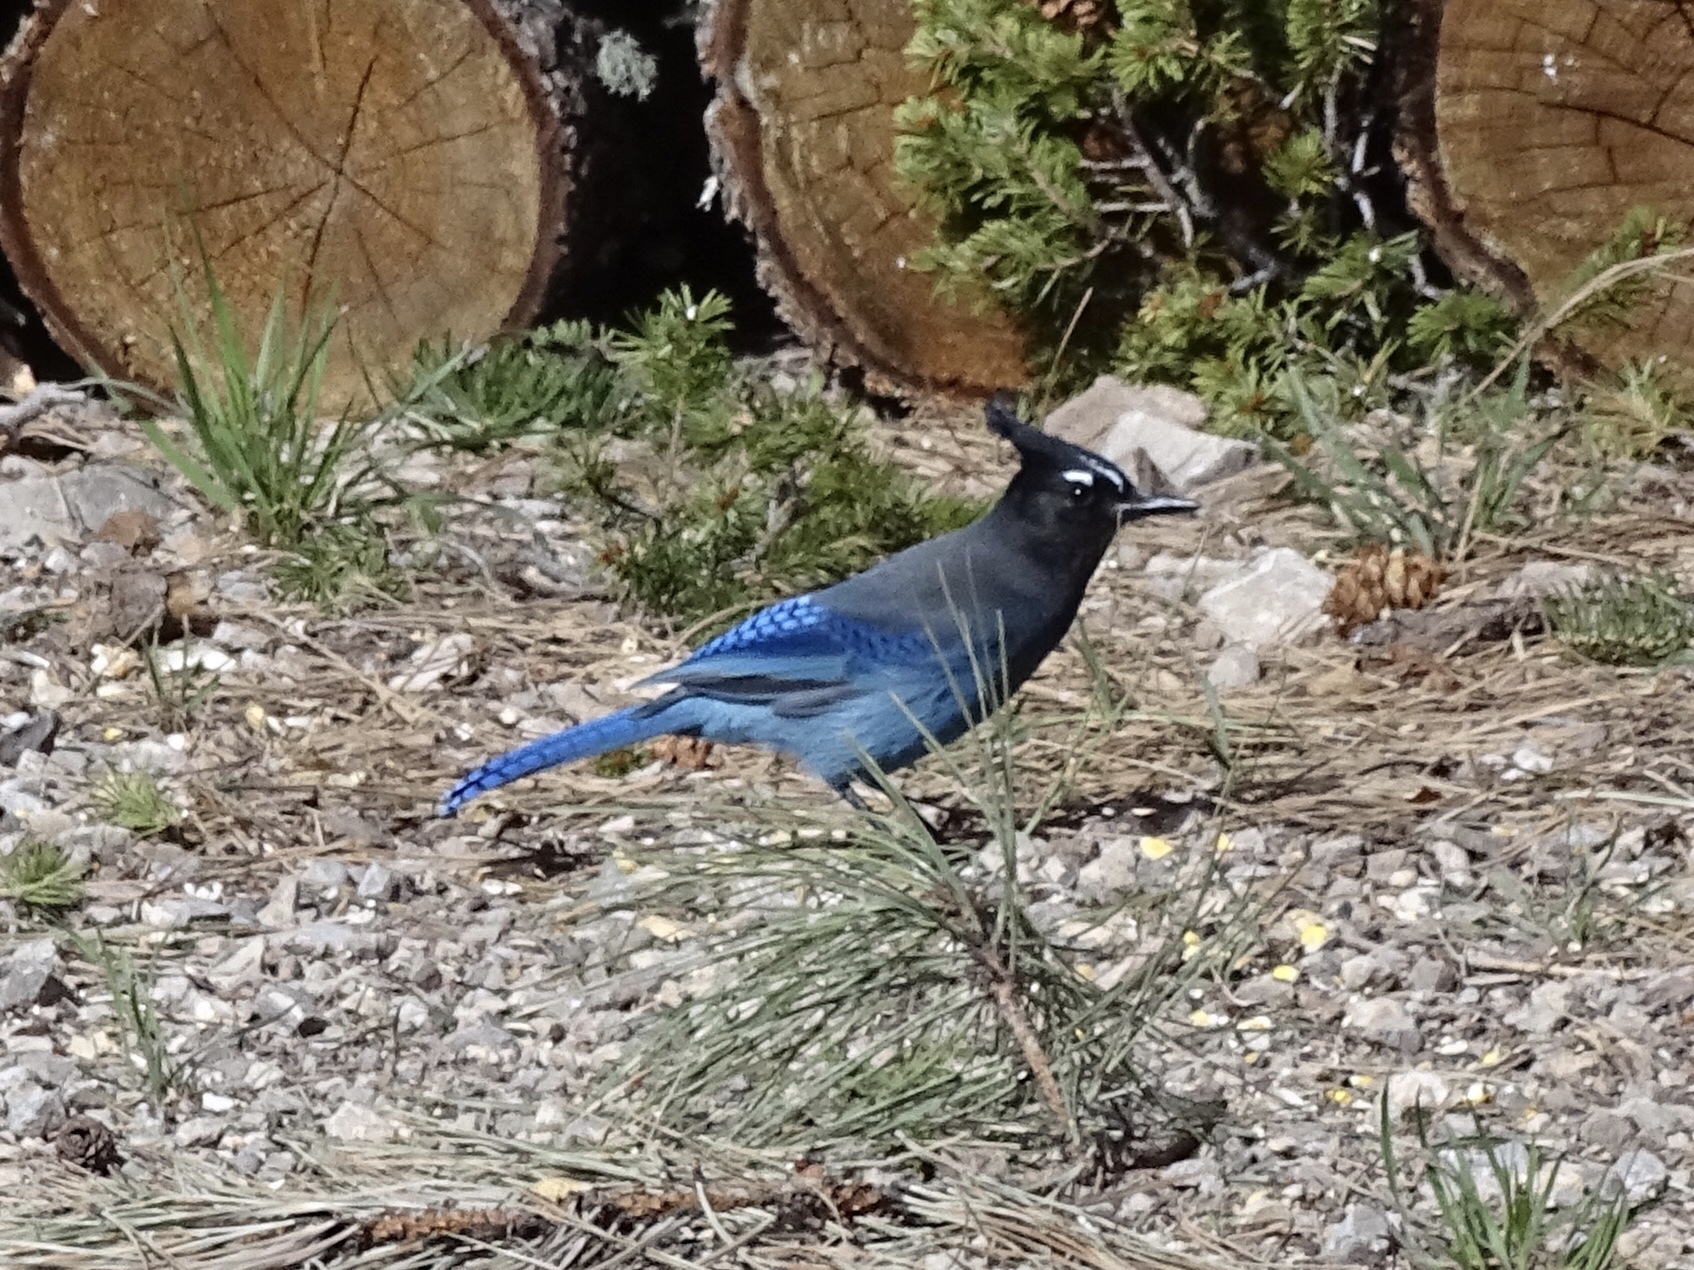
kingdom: Animalia
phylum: Chordata
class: Aves
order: Passeriformes
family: Corvidae
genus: Cyanocitta
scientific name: Cyanocitta stelleri
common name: Steller's jay
